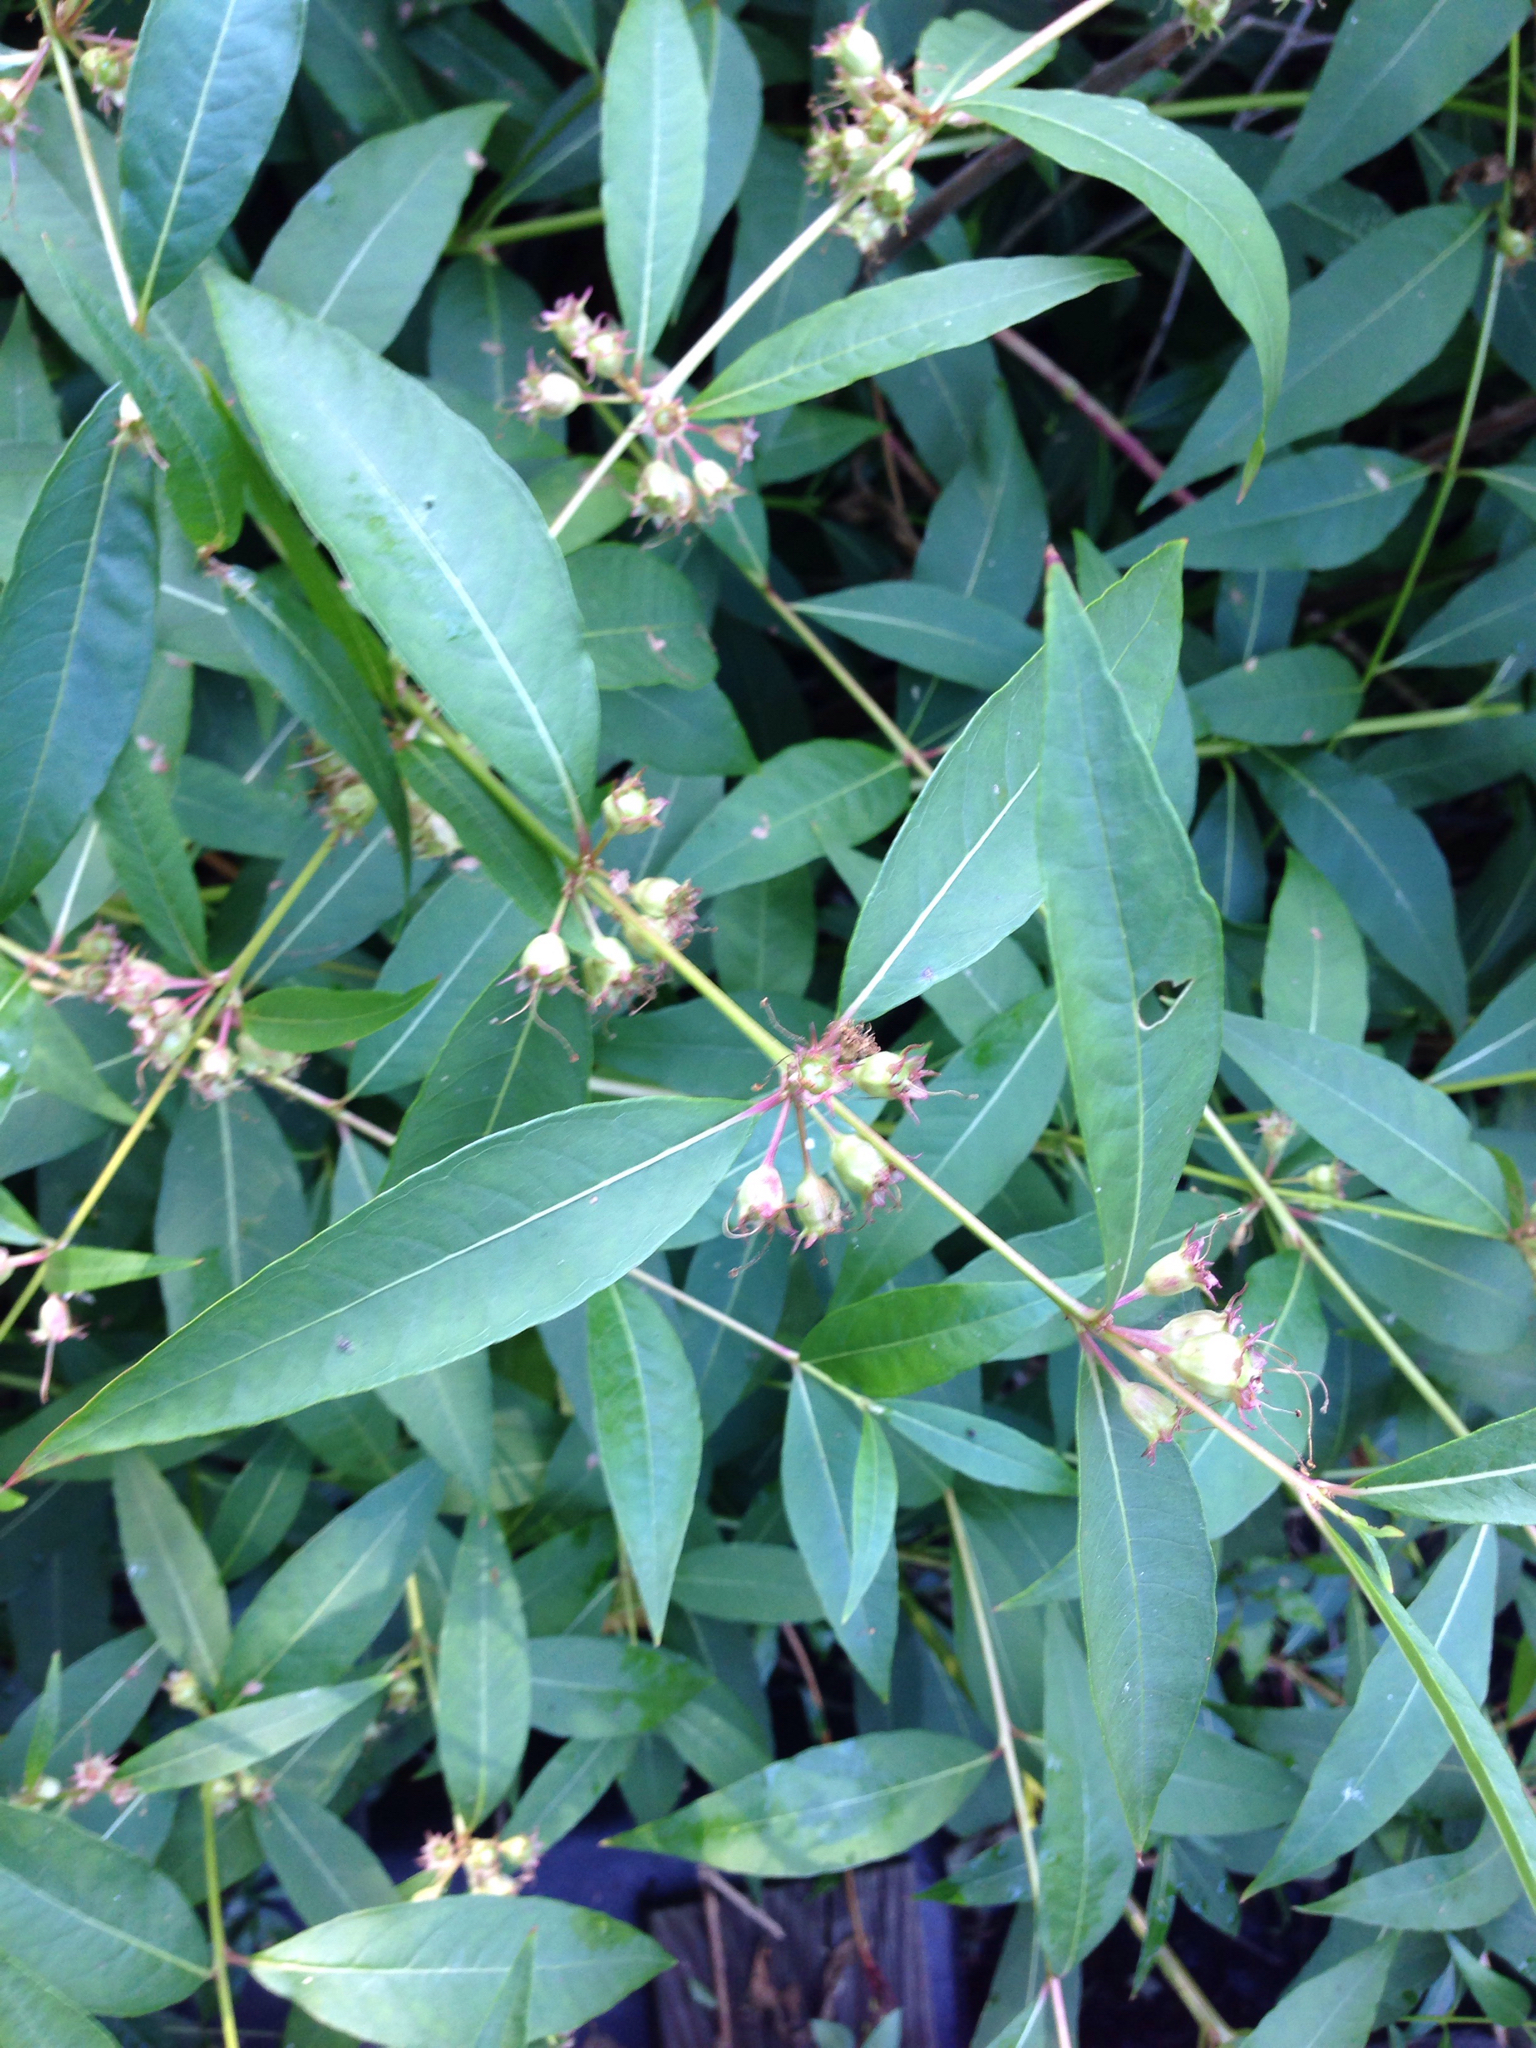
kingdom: Plantae
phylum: Tracheophyta
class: Magnoliopsida
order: Myrtales
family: Lythraceae
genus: Decodon
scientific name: Decodon verticillatus
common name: Hairy swamp loosestrife
